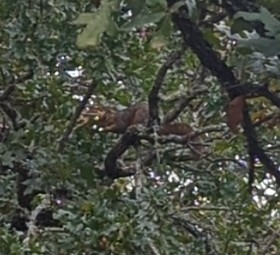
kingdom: Animalia
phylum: Chordata
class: Mammalia
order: Rodentia
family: Sciuridae
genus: Sciurus
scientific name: Sciurus niger
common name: Fox squirrel
